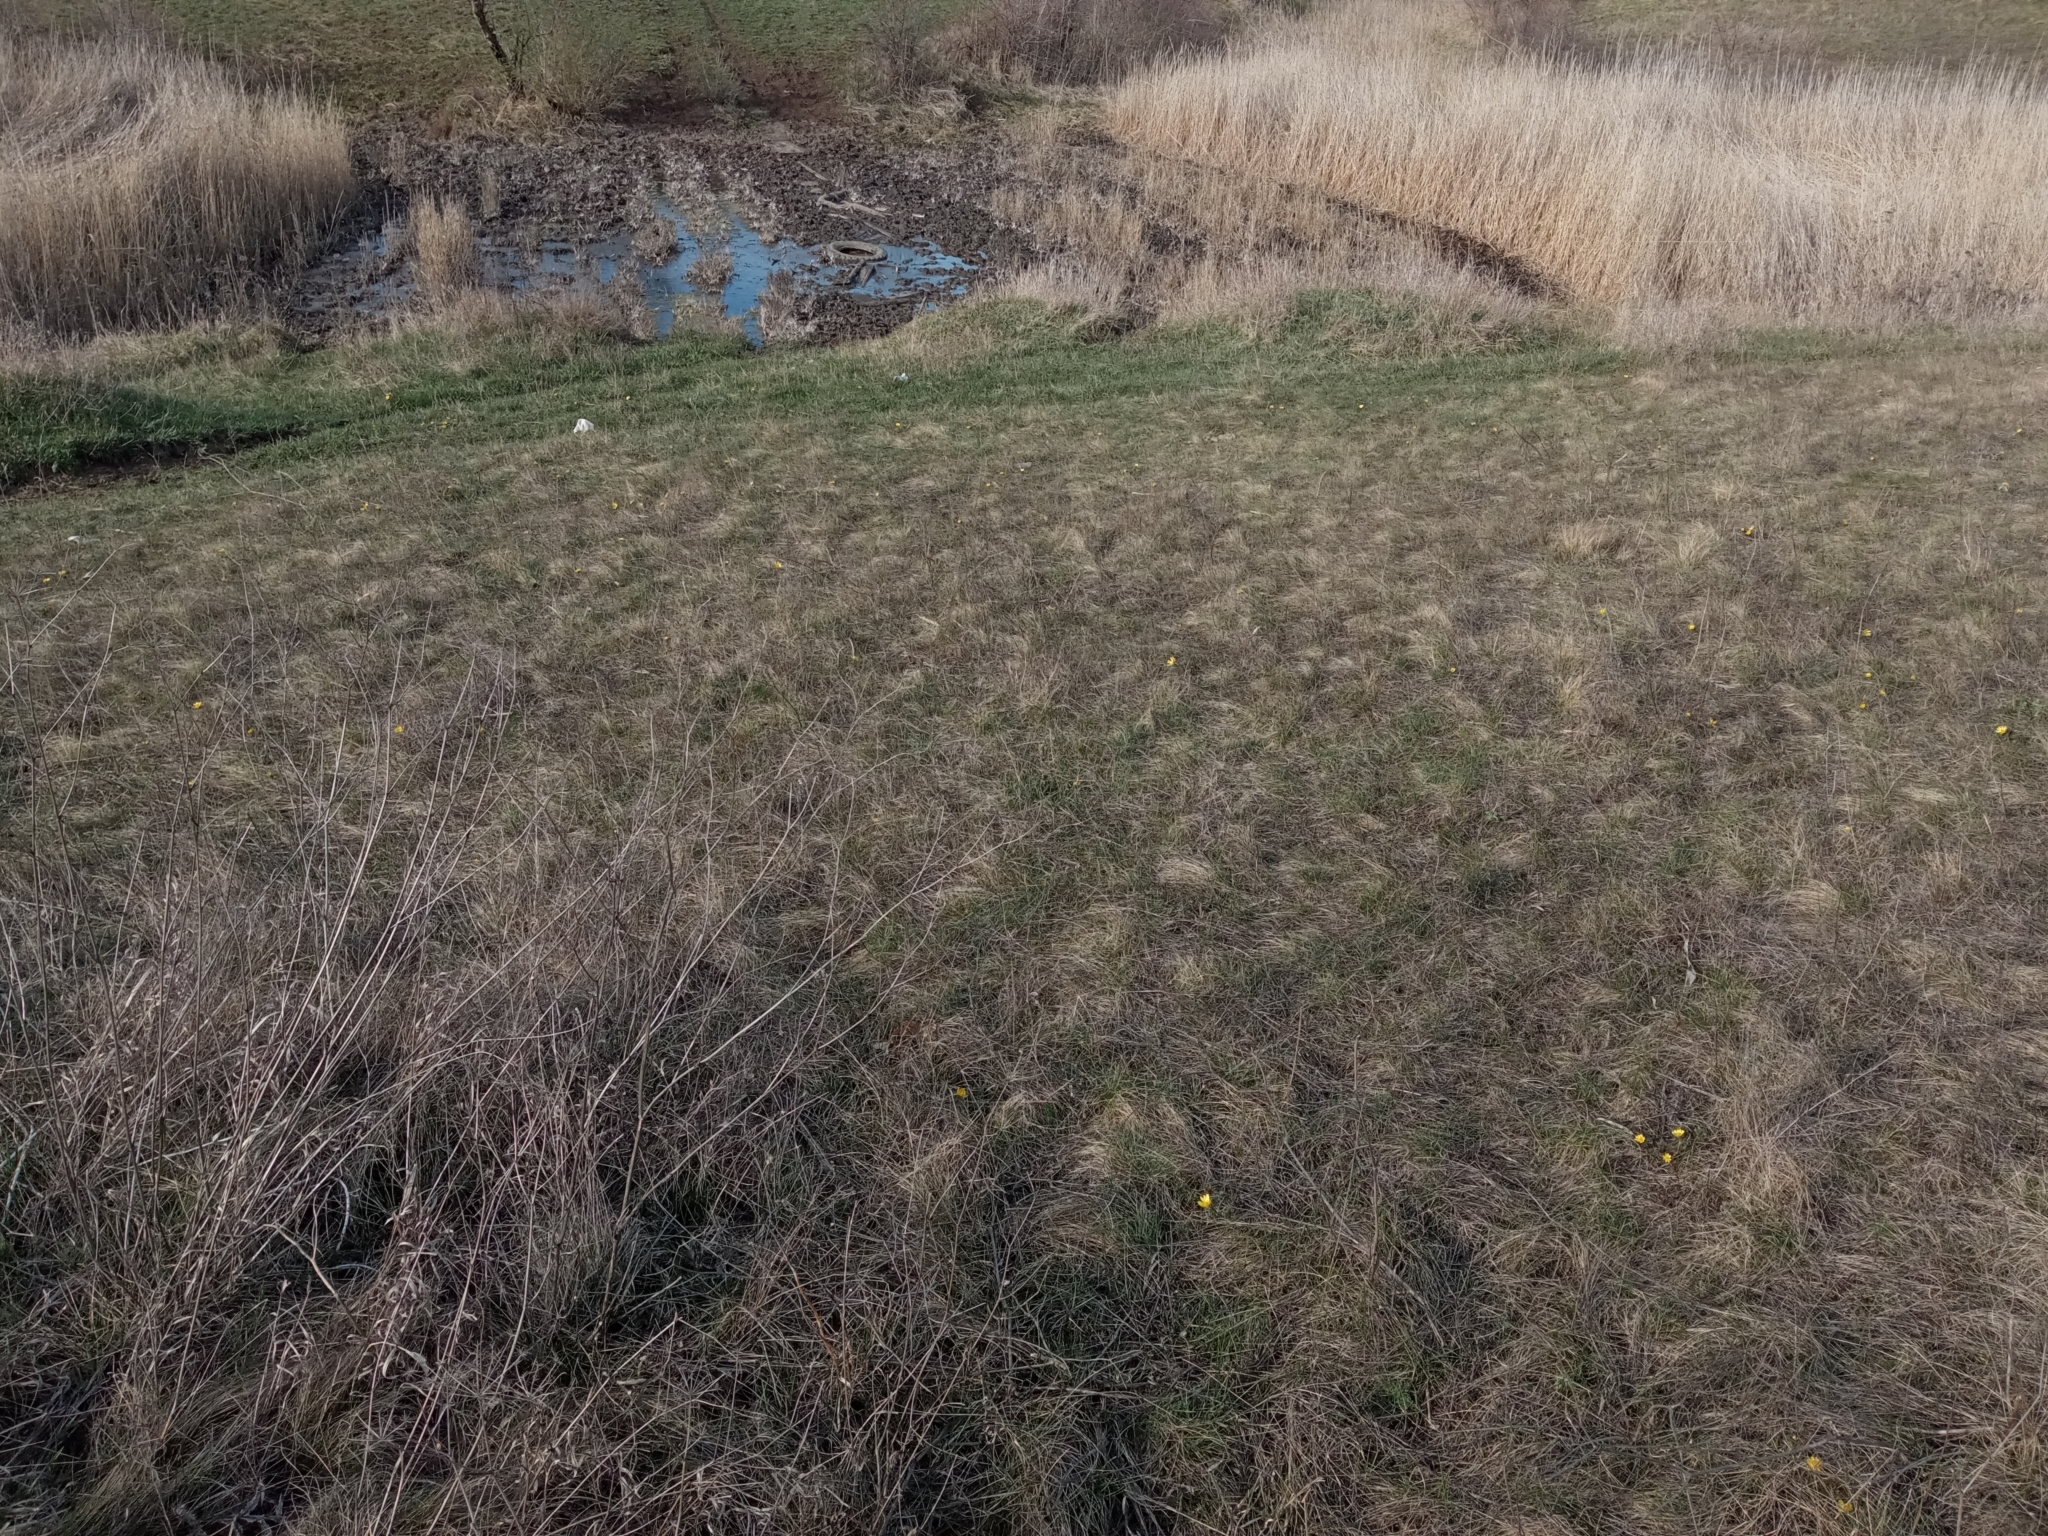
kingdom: Plantae
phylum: Tracheophyta
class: Magnoliopsida
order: Ranunculales
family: Ranunculaceae
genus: Adonis
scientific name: Adonis volgensis
